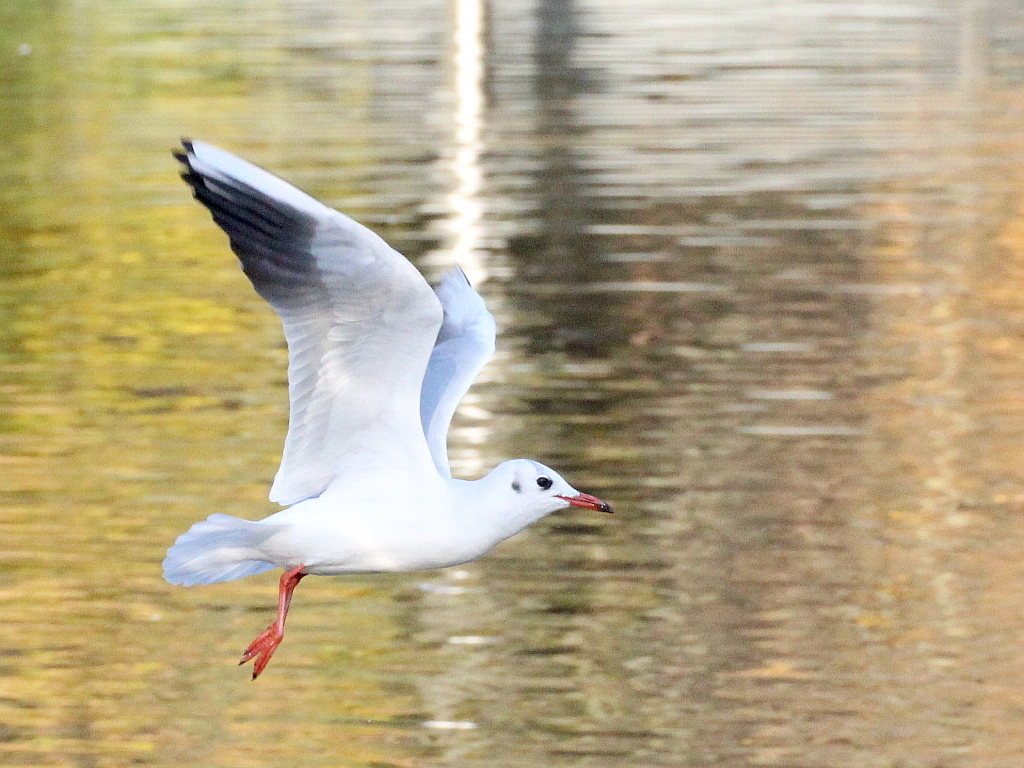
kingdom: Animalia
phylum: Chordata
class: Aves
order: Charadriiformes
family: Laridae
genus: Chroicocephalus
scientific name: Chroicocephalus ridibundus
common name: Black-headed gull
